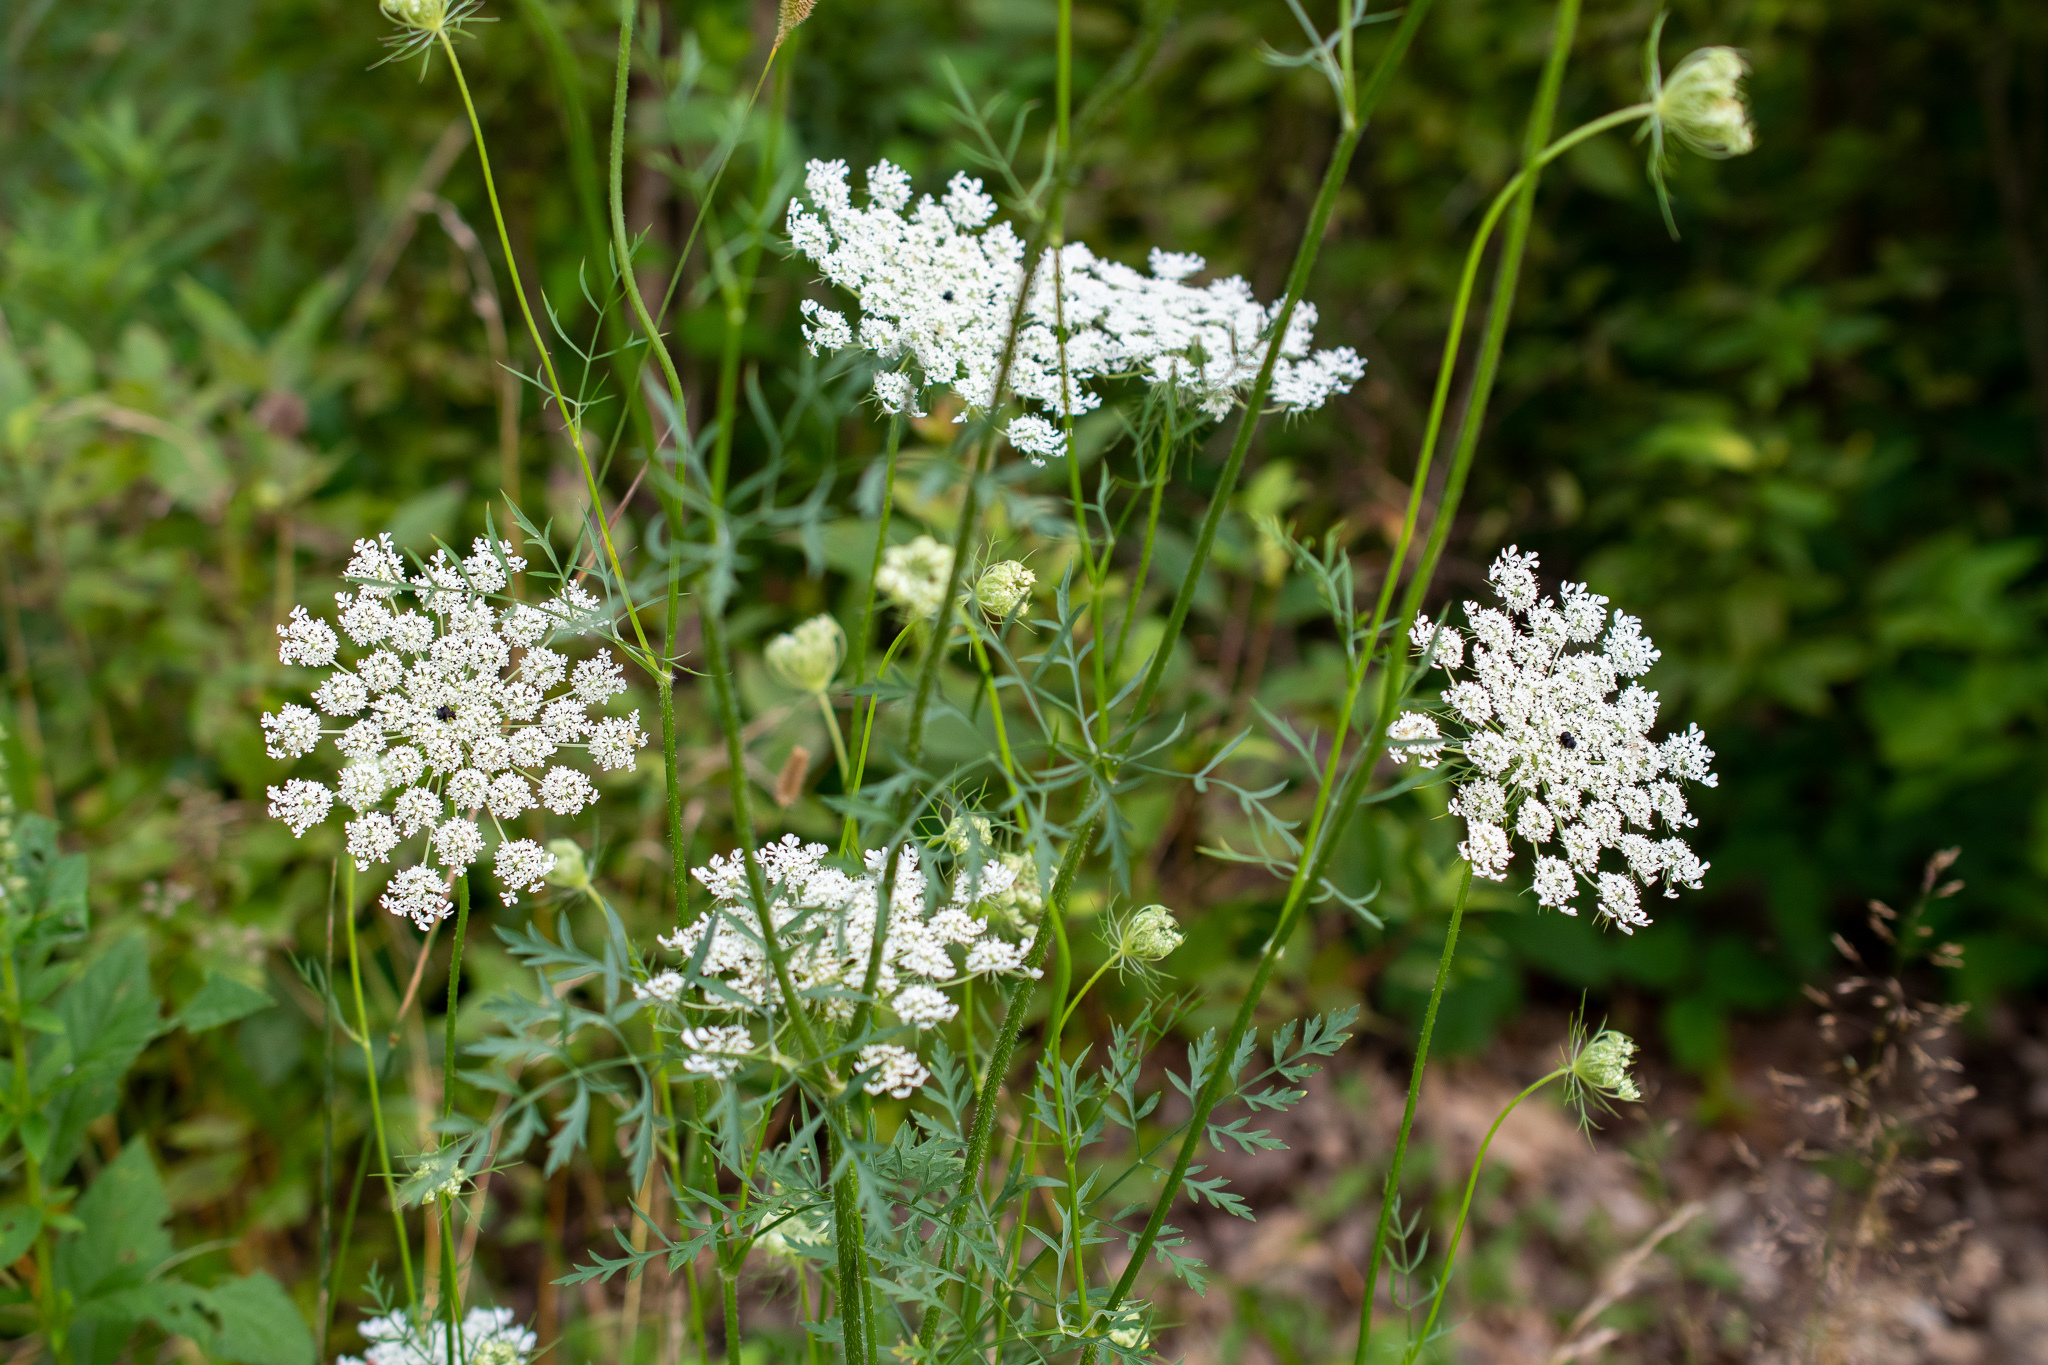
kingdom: Plantae
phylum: Tracheophyta
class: Magnoliopsida
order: Apiales
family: Apiaceae
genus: Daucus
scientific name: Daucus carota
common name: Wild carrot
